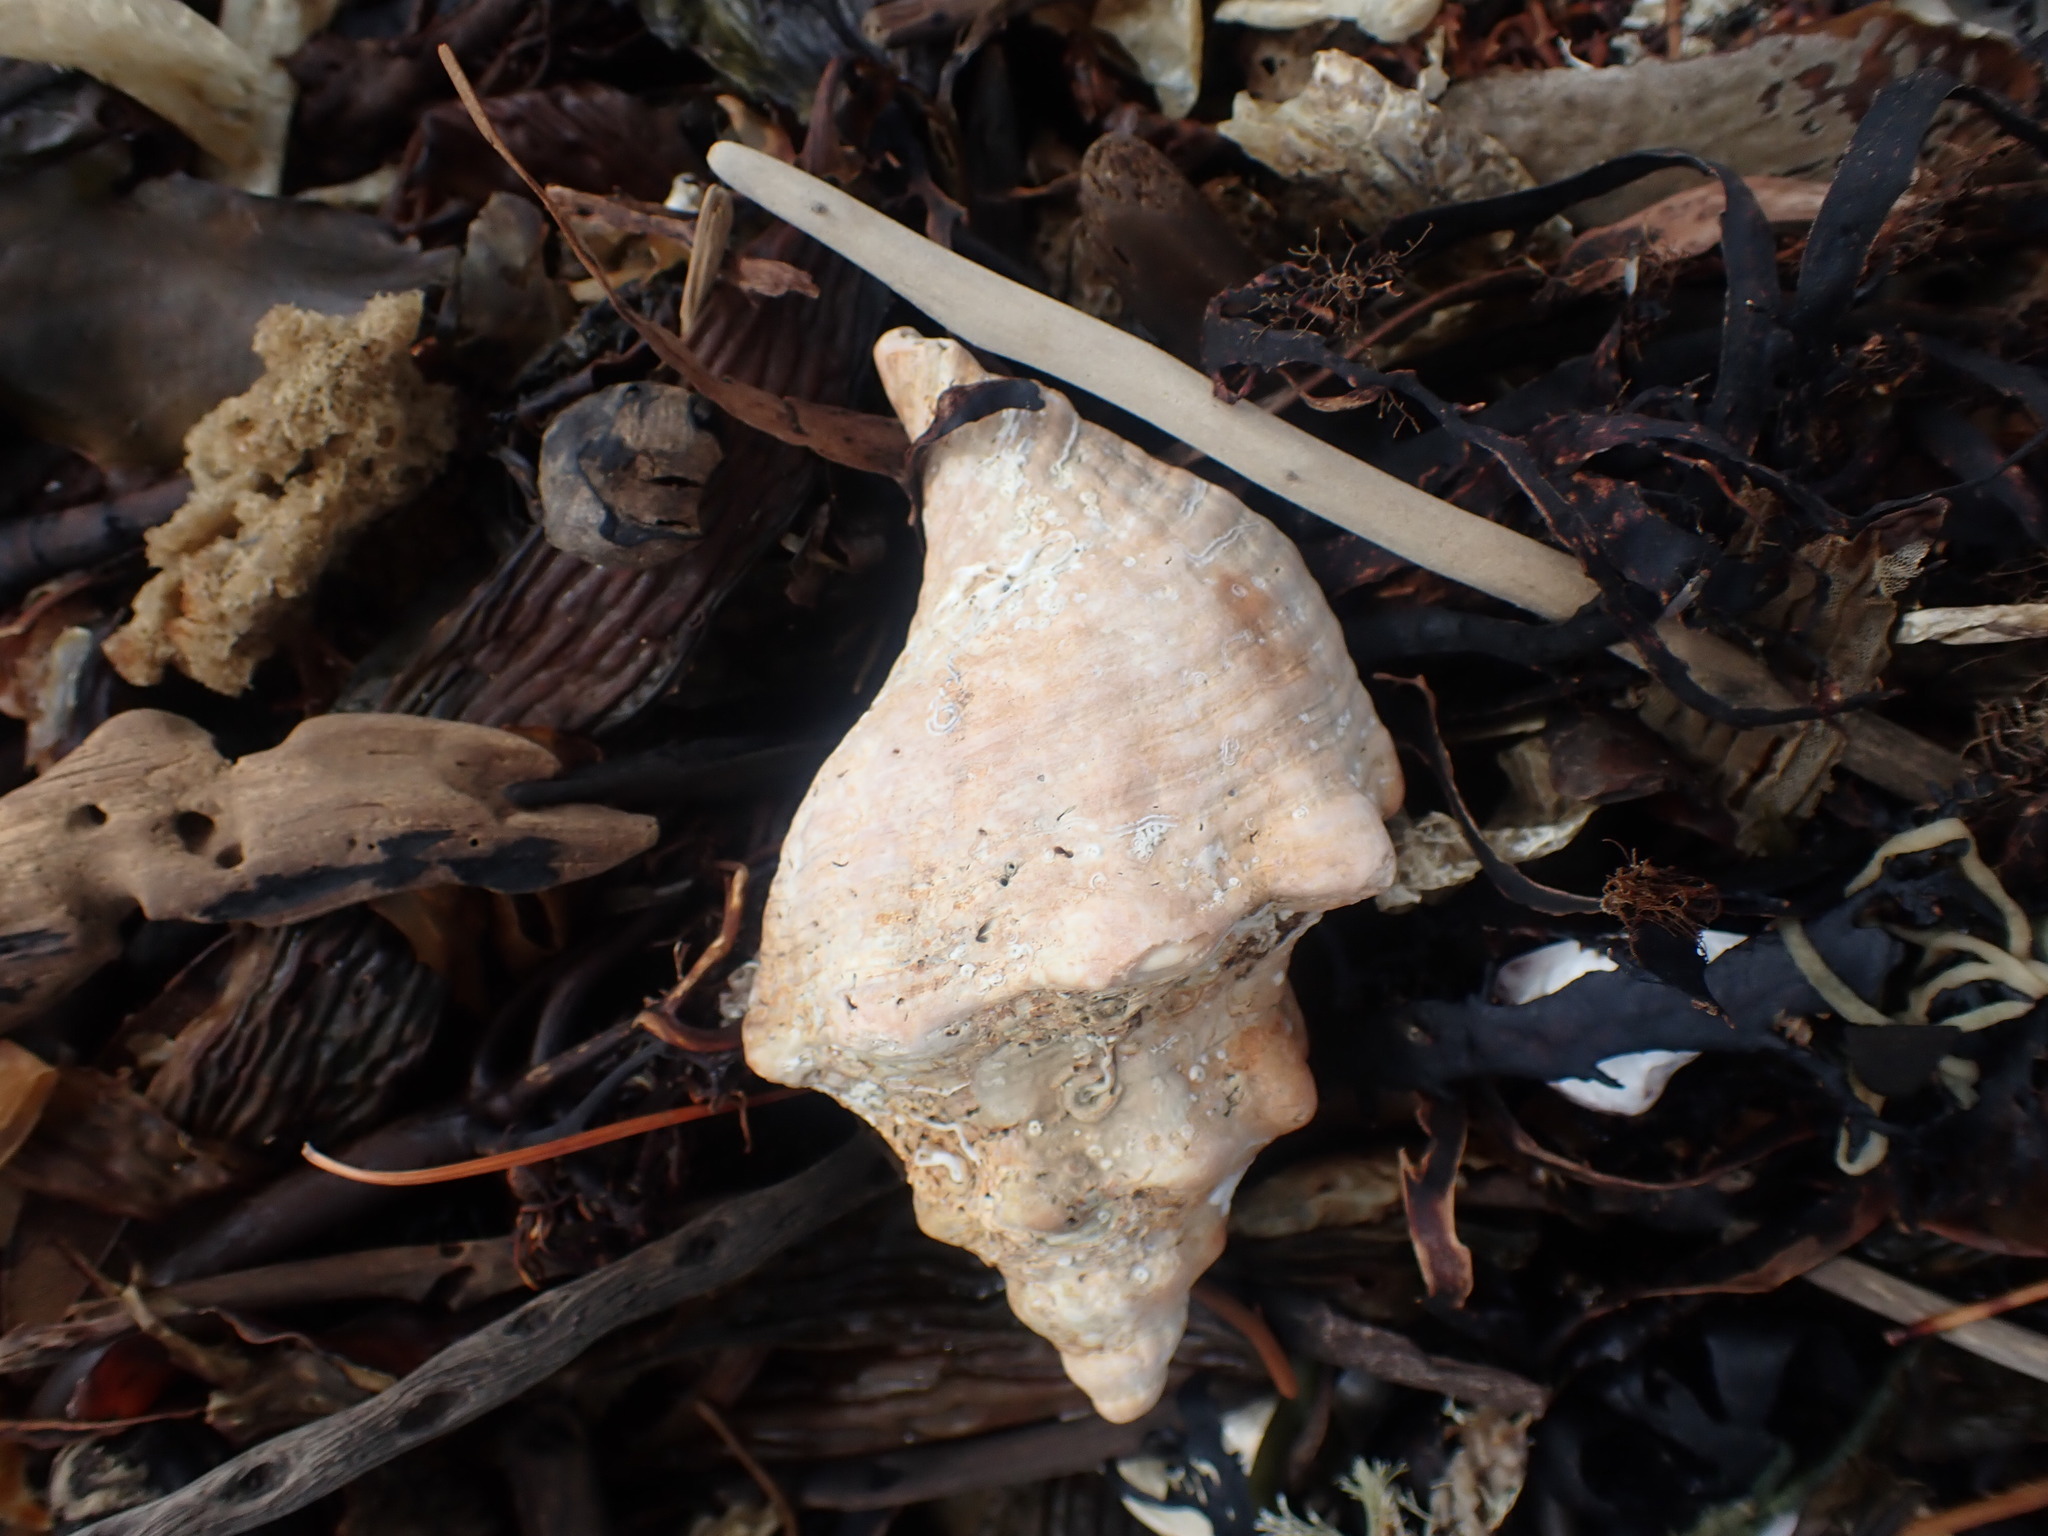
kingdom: Animalia
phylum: Mollusca
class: Gastropoda
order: Neogastropoda
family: Austrosiphonidae
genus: Penion
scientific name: Penion sulcatus
